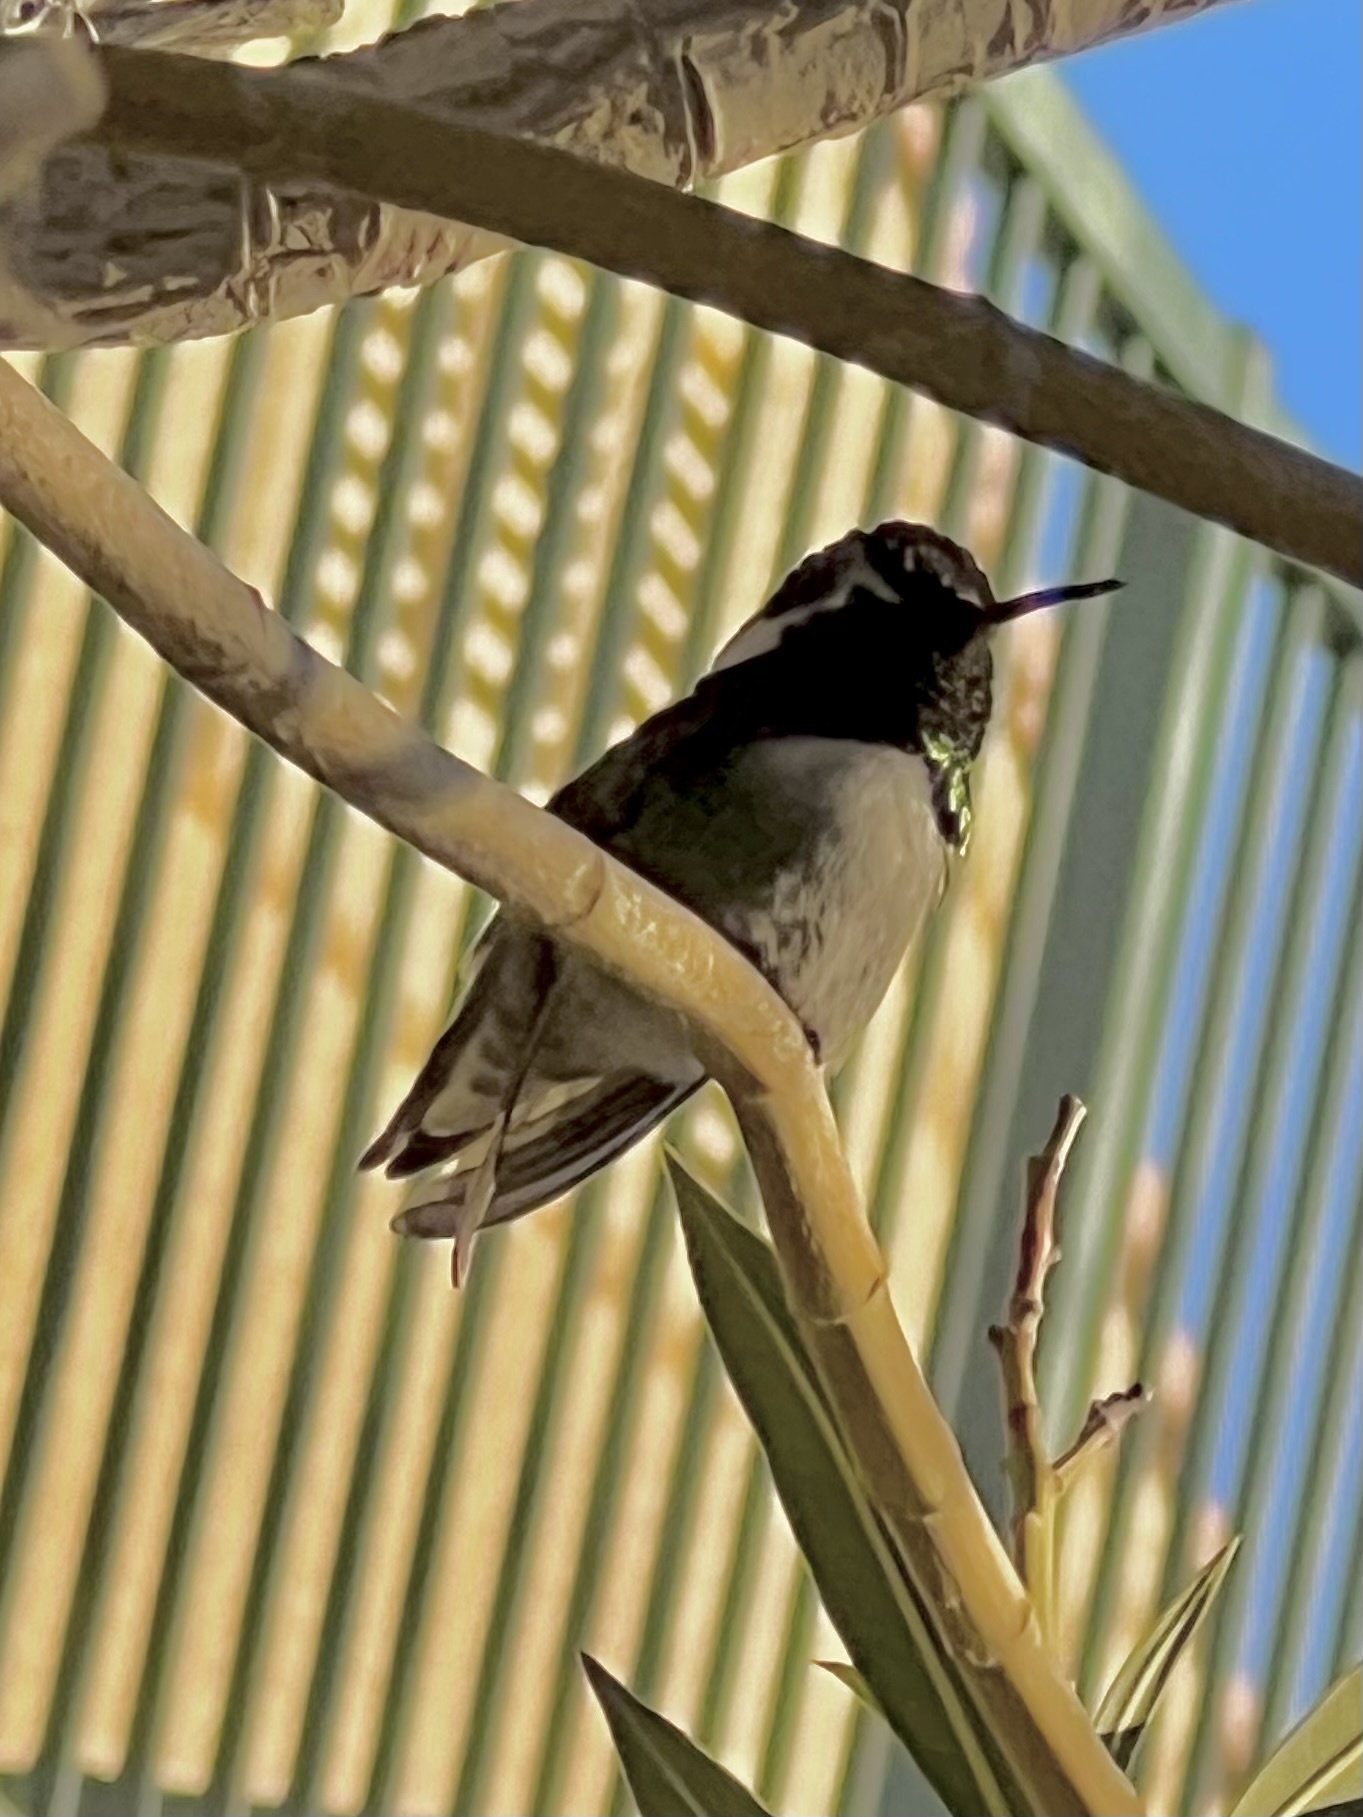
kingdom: Animalia
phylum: Chordata
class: Aves
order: Apodiformes
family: Trochilidae
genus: Calypte
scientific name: Calypte costae
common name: Costa's hummingbird
